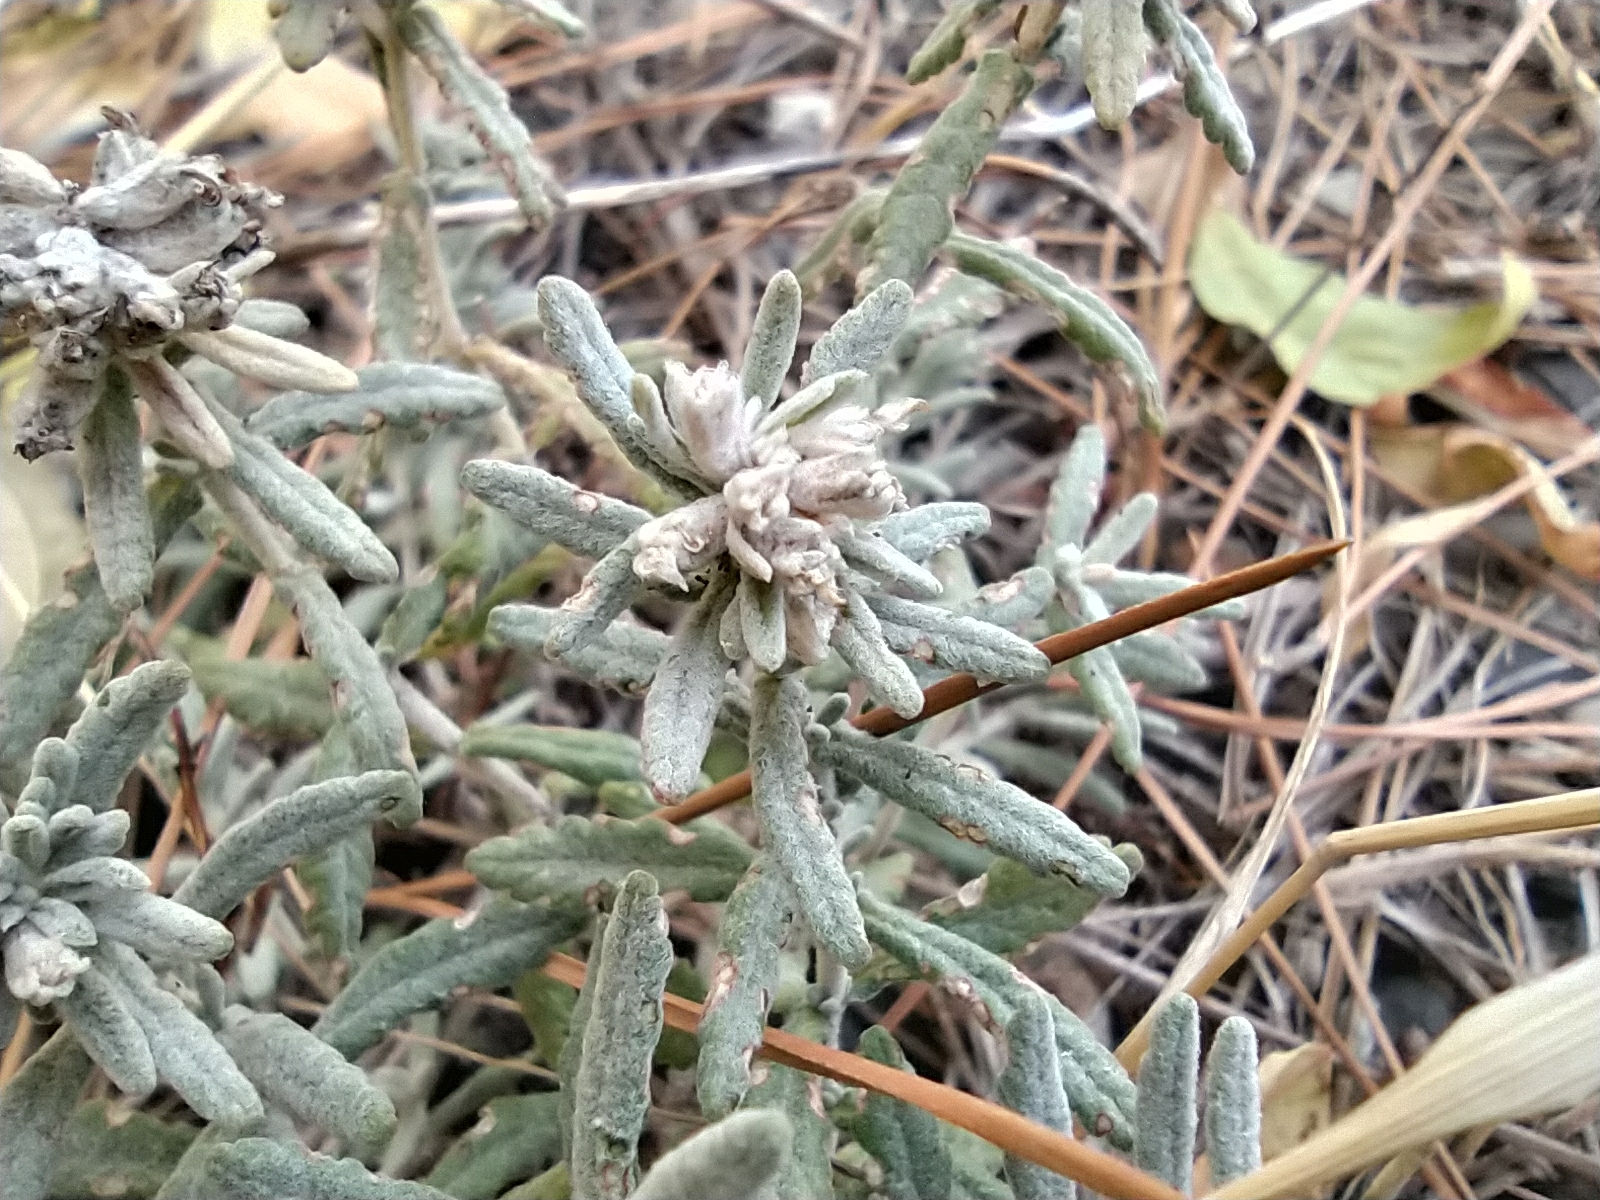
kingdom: Plantae
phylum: Tracheophyta
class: Magnoliopsida
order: Lamiales
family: Lamiaceae
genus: Teucrium
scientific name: Teucrium polium
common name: Poley
